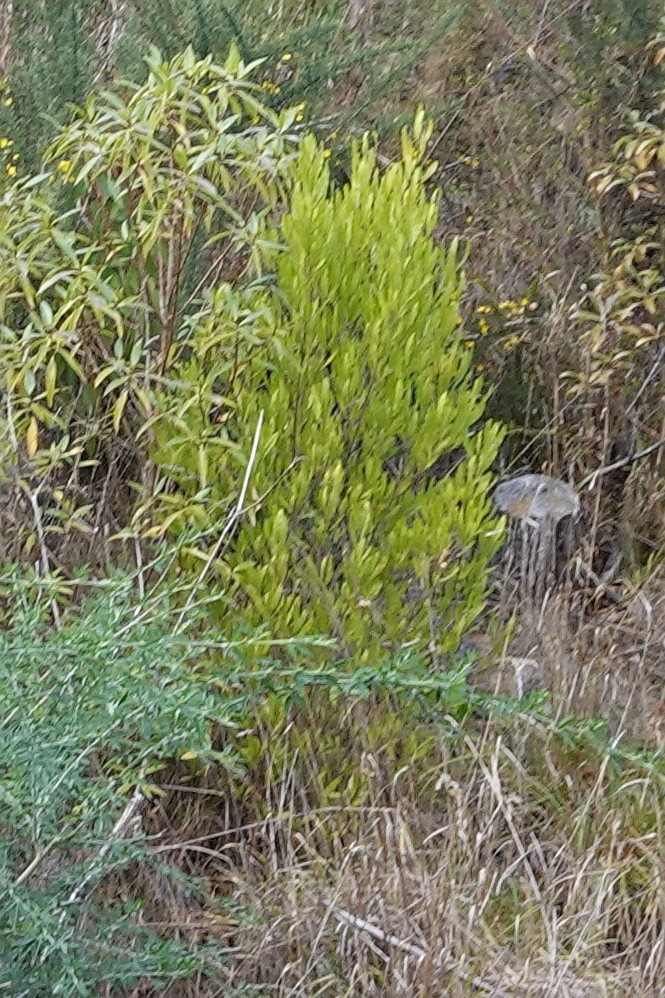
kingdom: Plantae
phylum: Tracheophyta
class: Magnoliopsida
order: Sapindales
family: Sapindaceae
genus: Dodonaea
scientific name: Dodonaea viscosa
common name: Hopbush
